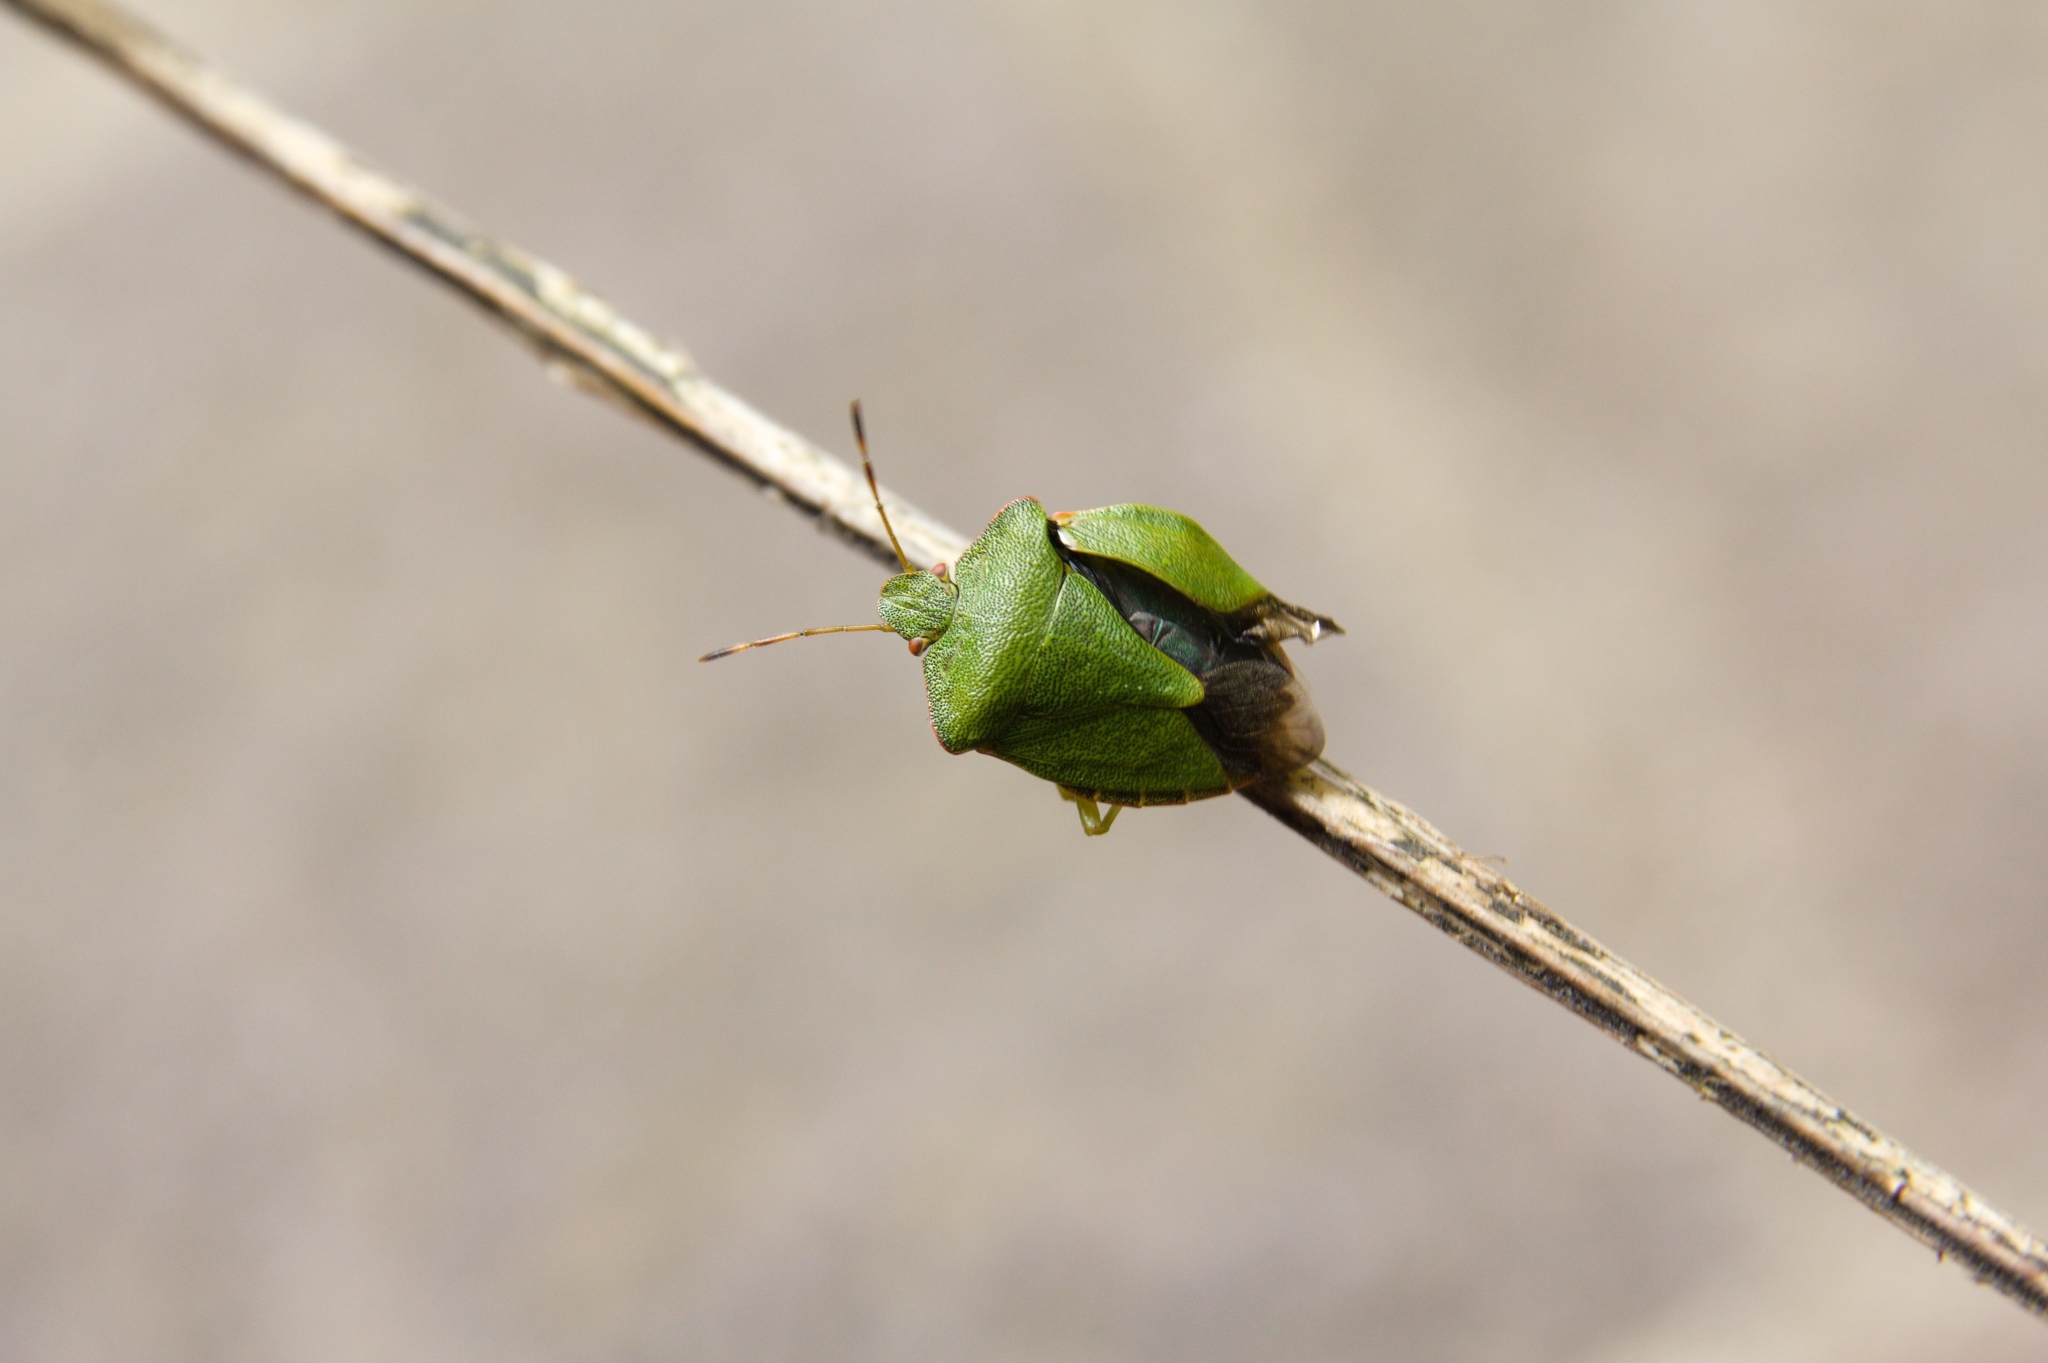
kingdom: Animalia
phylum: Arthropoda
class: Insecta
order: Hemiptera
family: Pentatomidae
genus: Palomena
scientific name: Palomena prasina
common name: Green shieldbug
